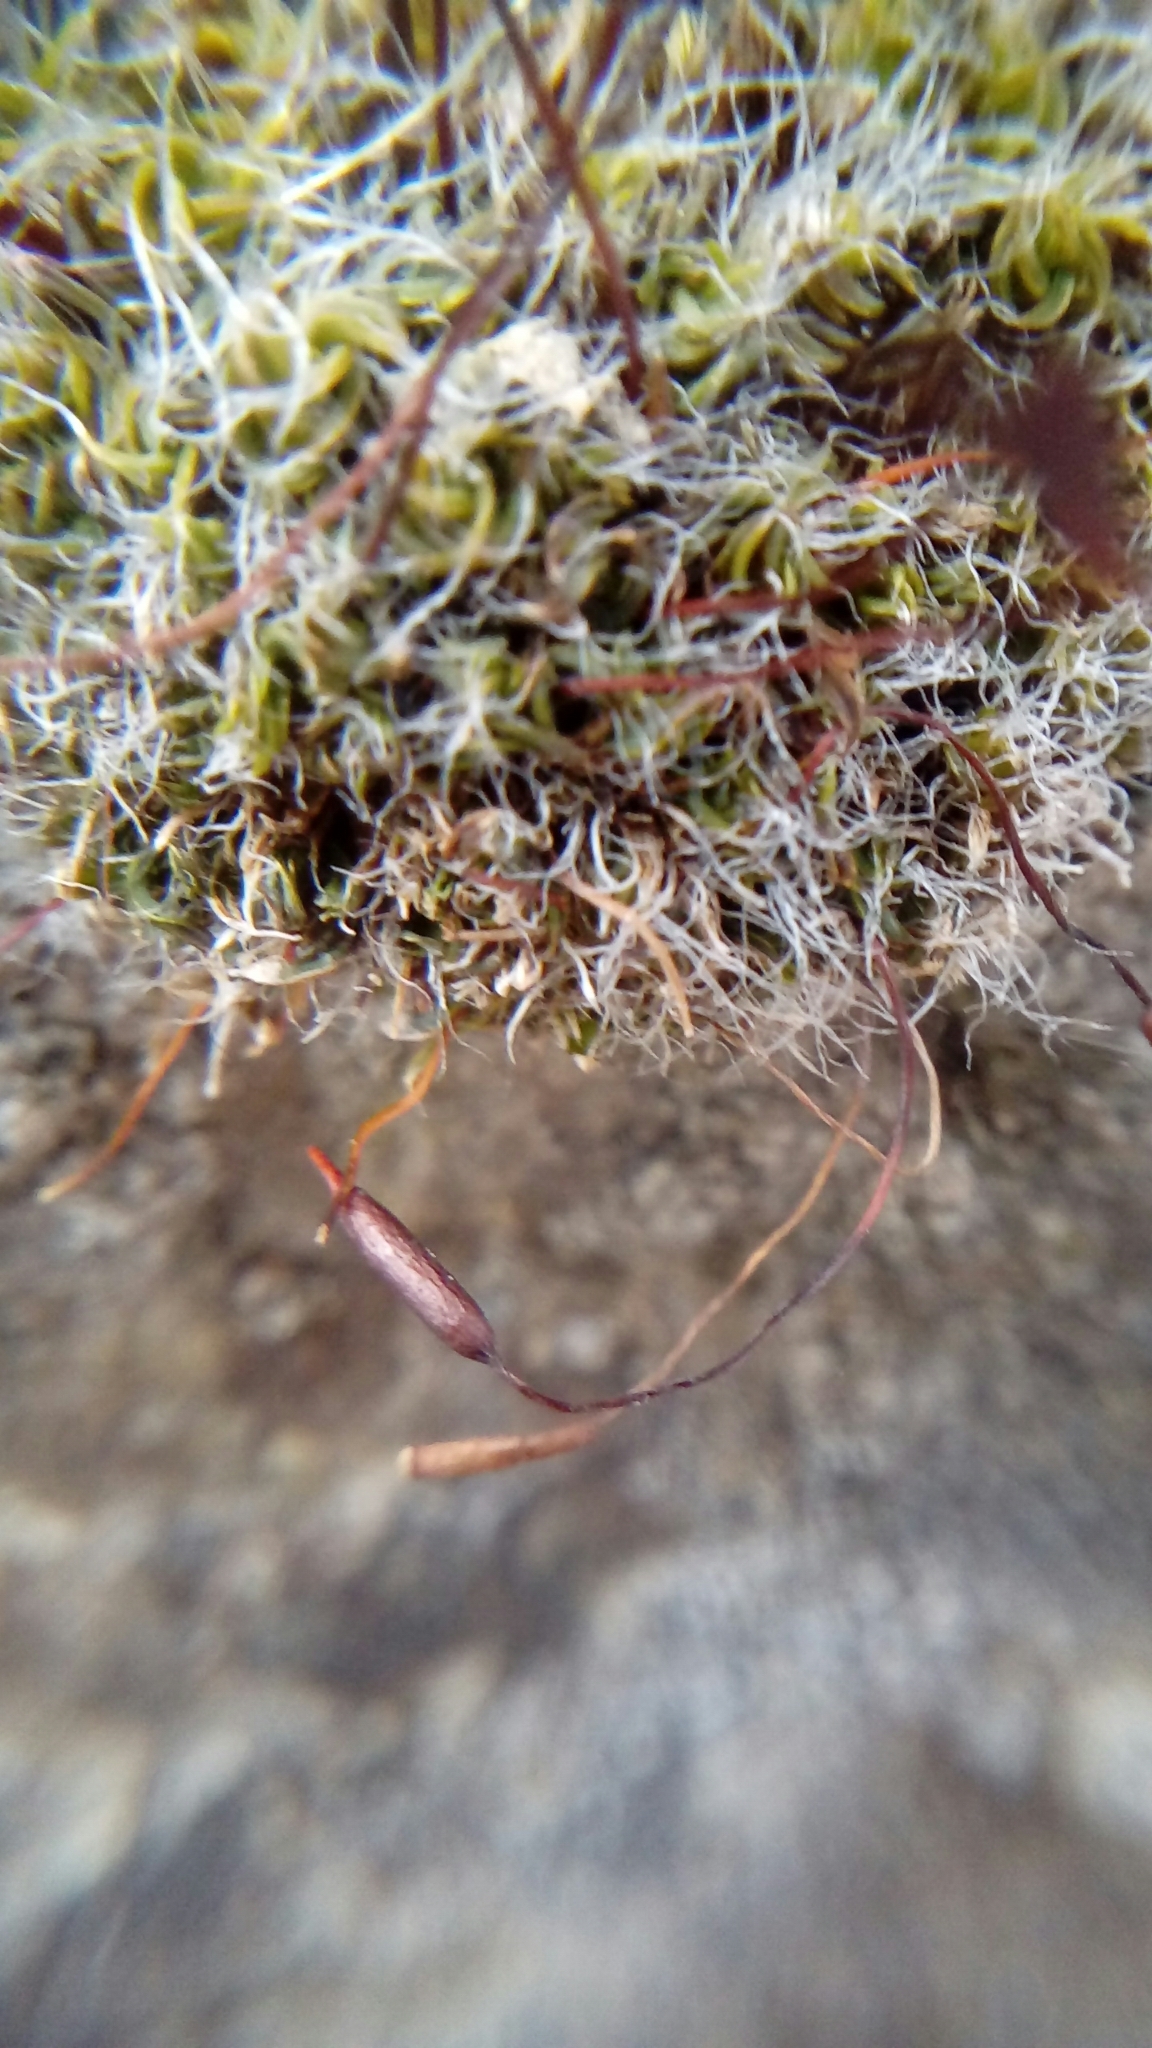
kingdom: Plantae
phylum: Bryophyta
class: Bryopsida
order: Pottiales
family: Pottiaceae
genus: Tortula
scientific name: Tortula muralis
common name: Wall screw-moss
